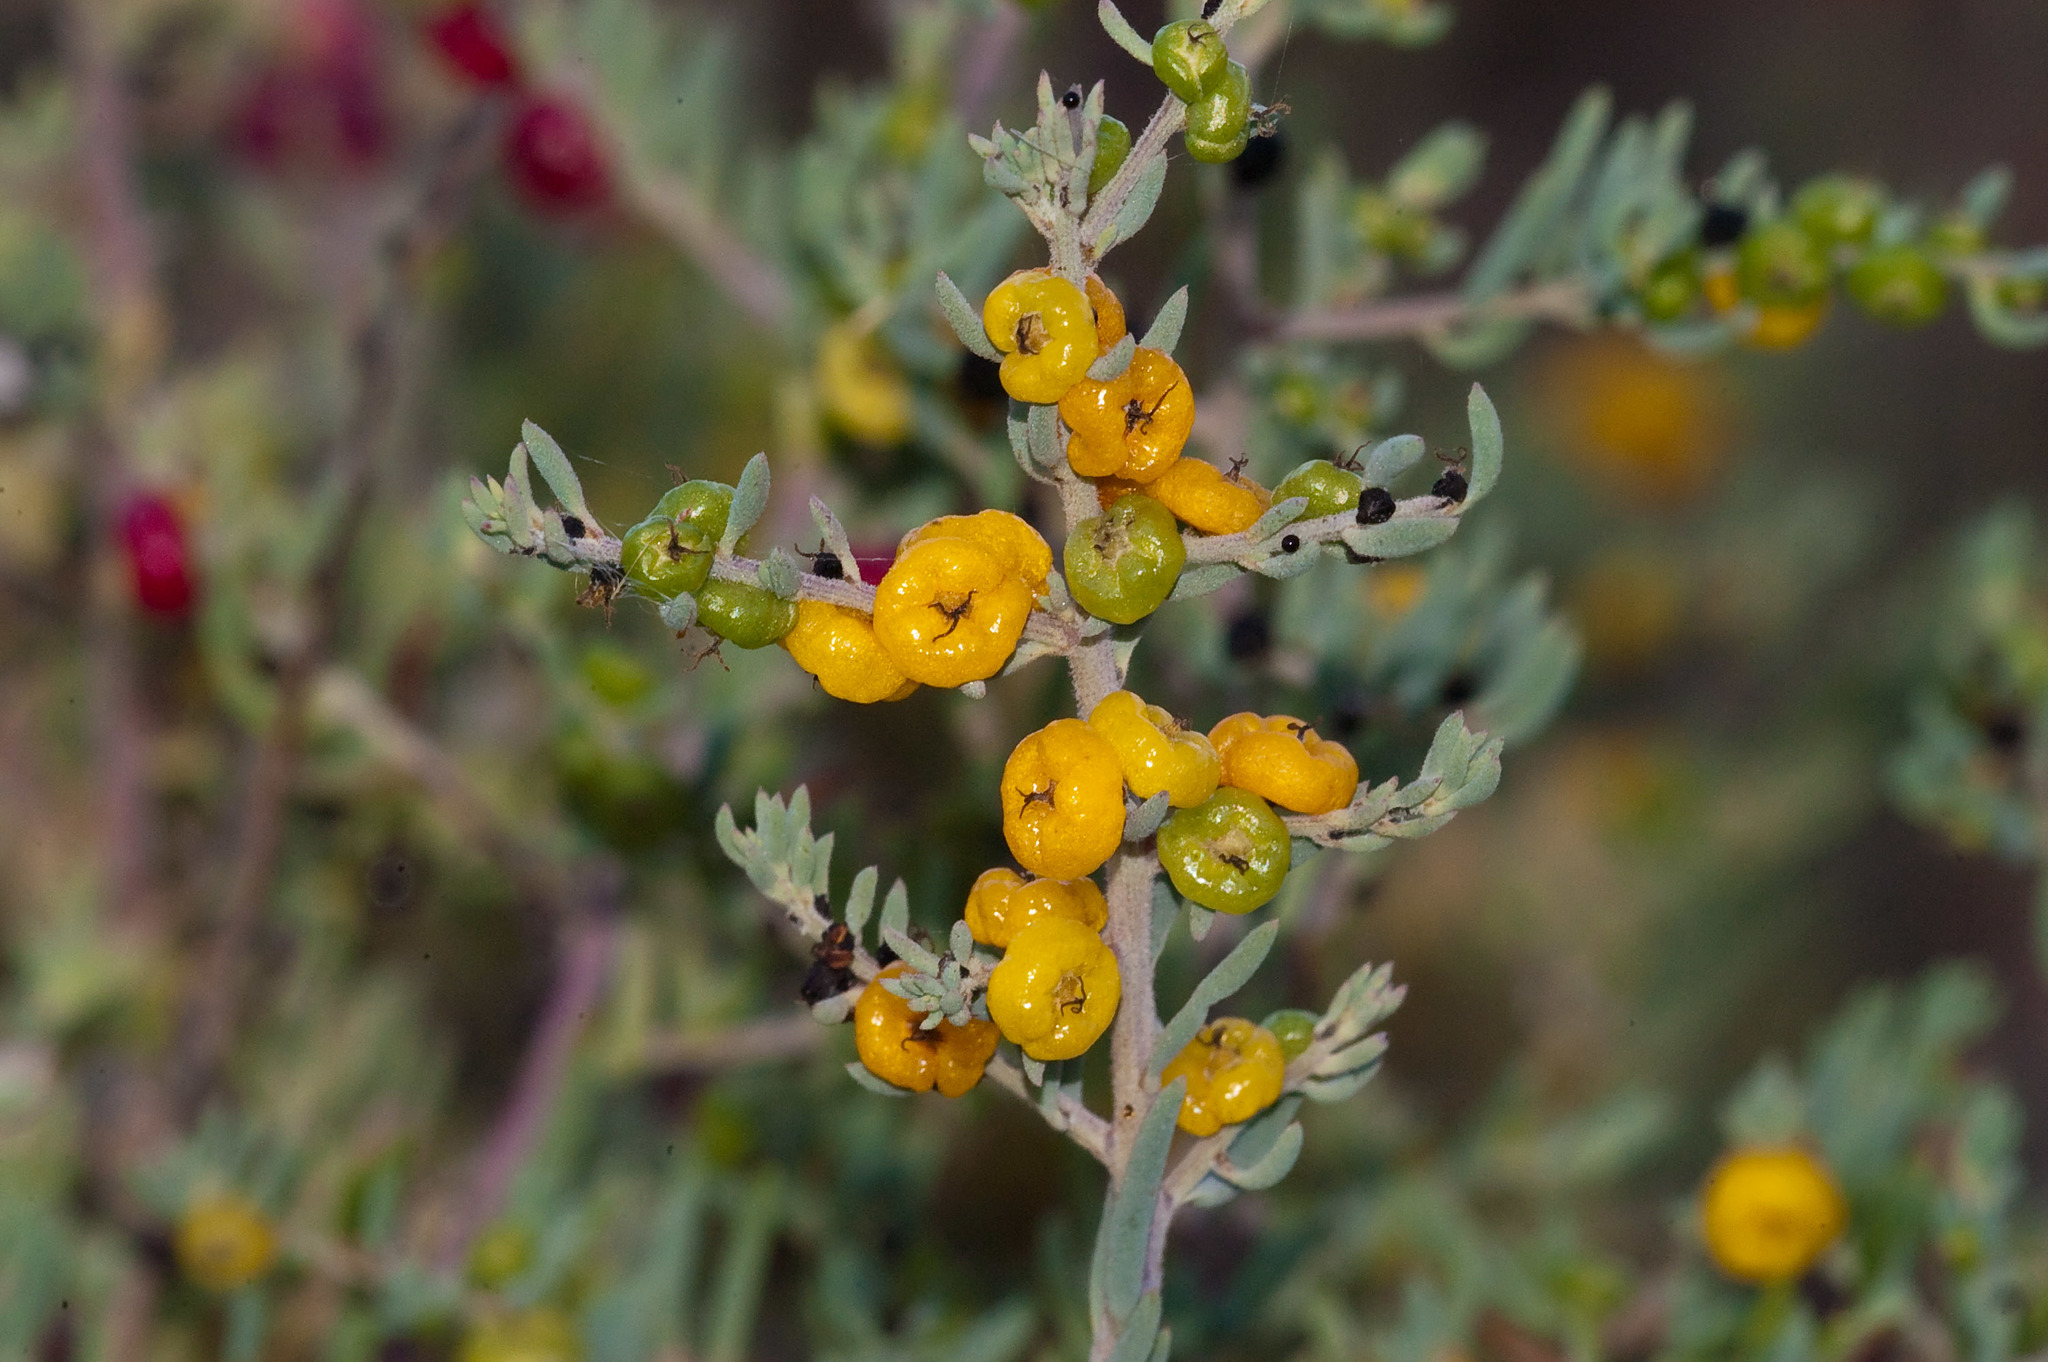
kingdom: Plantae
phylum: Tracheophyta
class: Magnoliopsida
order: Caryophyllales
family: Amaranthaceae
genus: Enchylaena
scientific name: Enchylaena tomentosa
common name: Ruby saltbush
